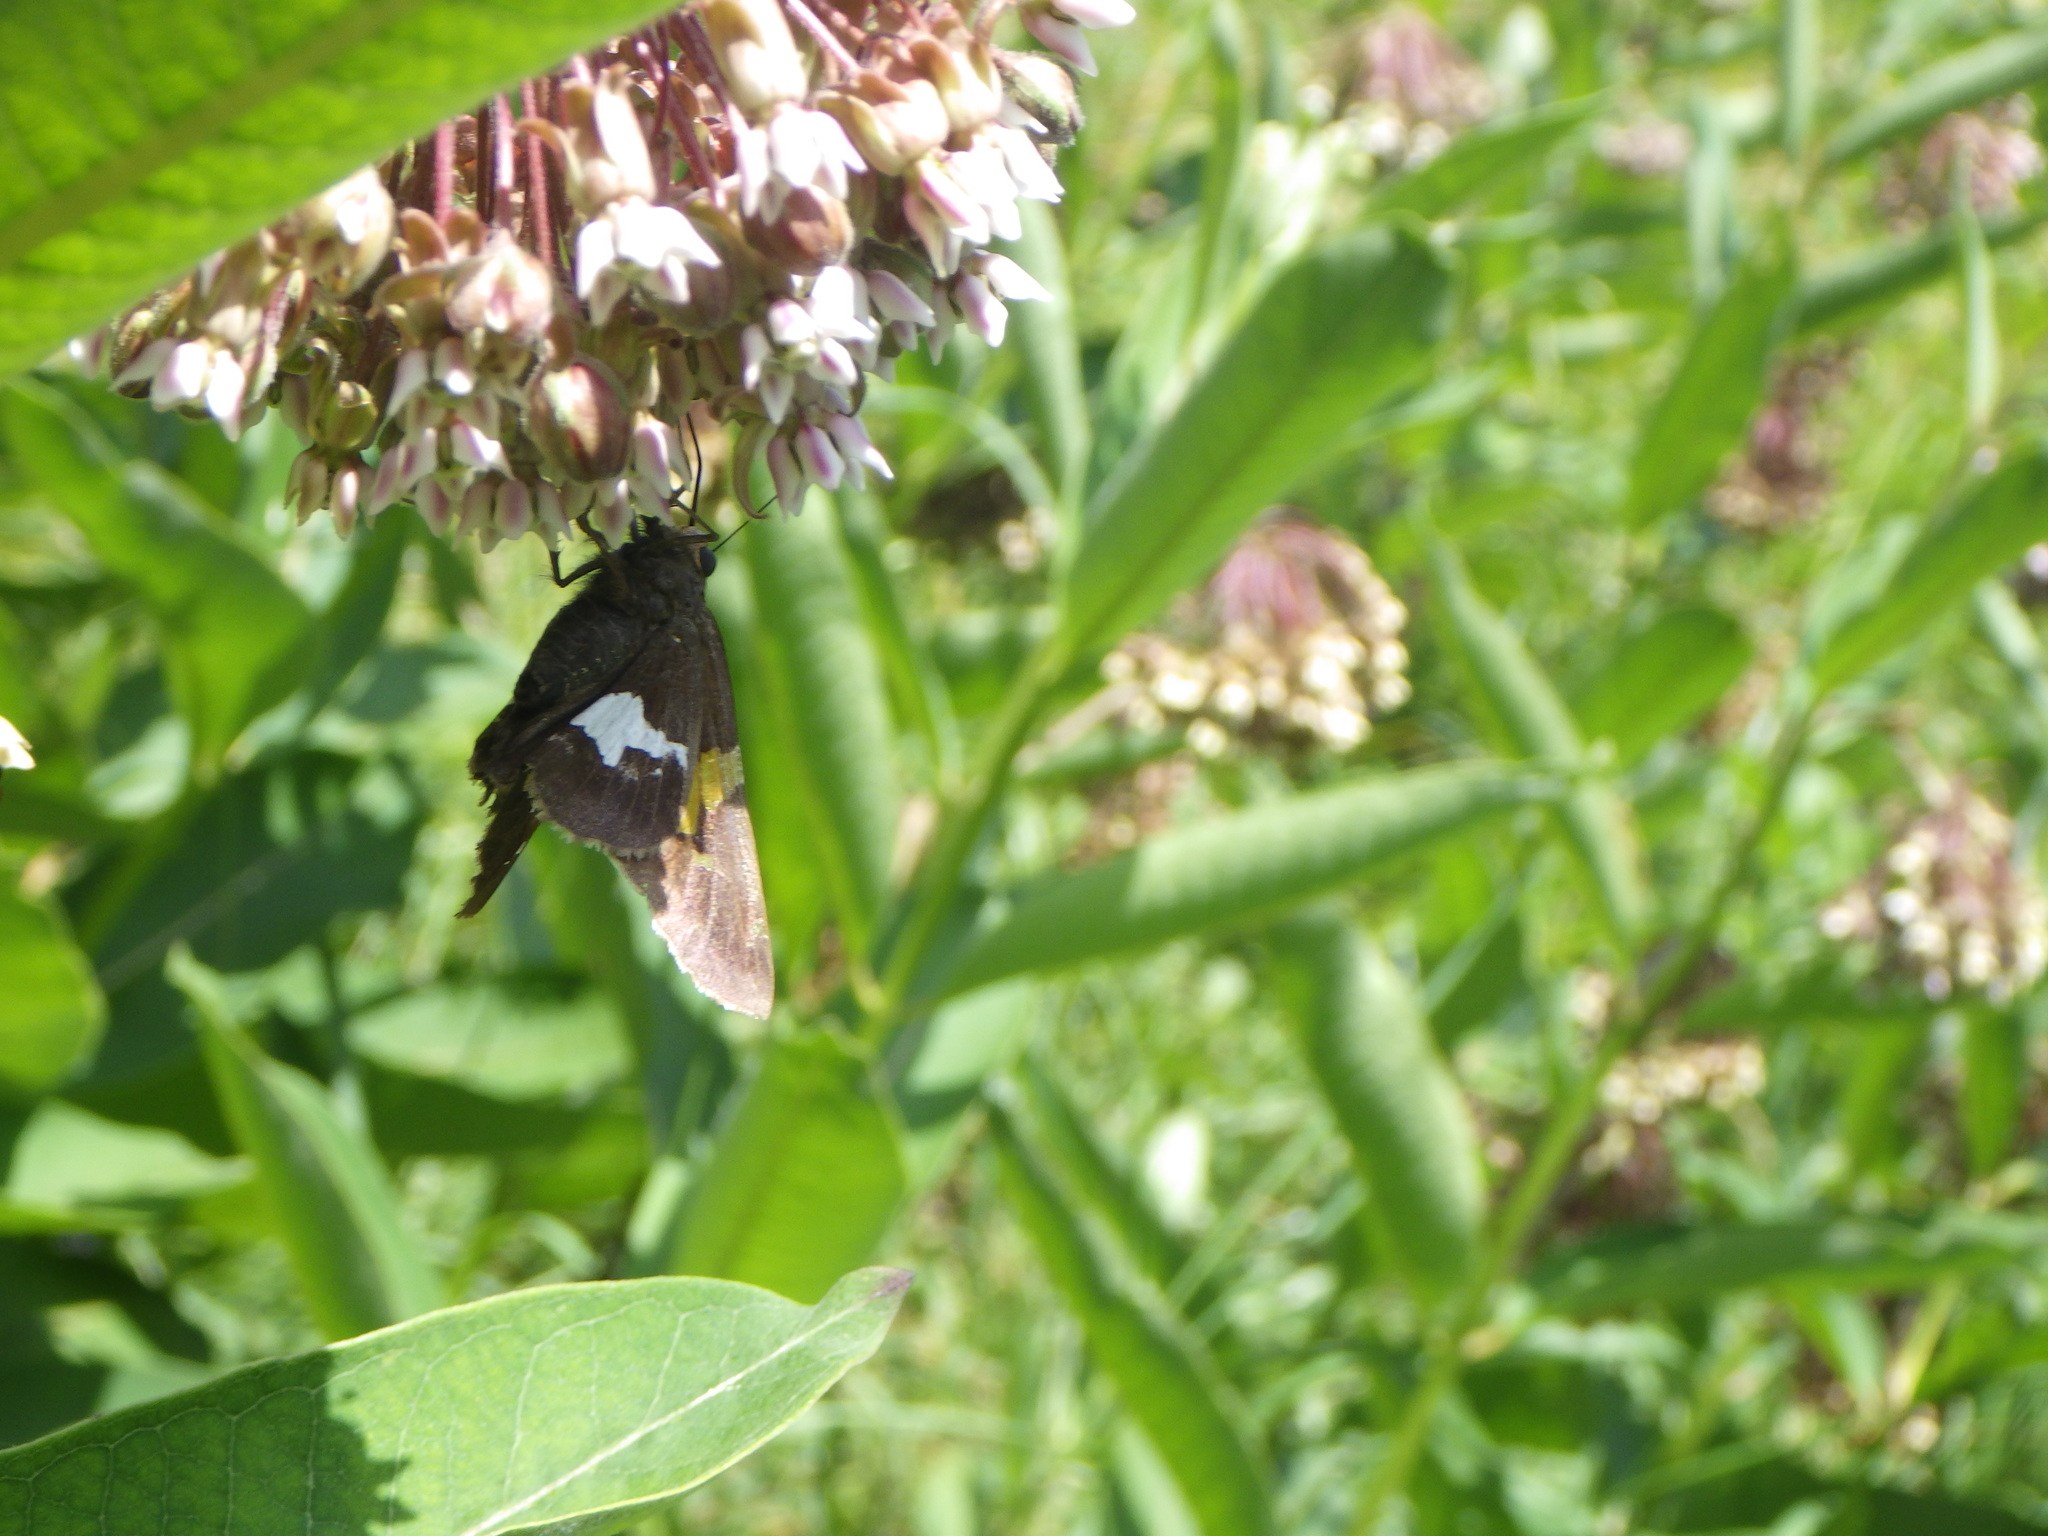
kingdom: Animalia
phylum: Arthropoda
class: Insecta
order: Lepidoptera
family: Hesperiidae
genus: Epargyreus
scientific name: Epargyreus clarus
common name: Silver-spotted skipper
